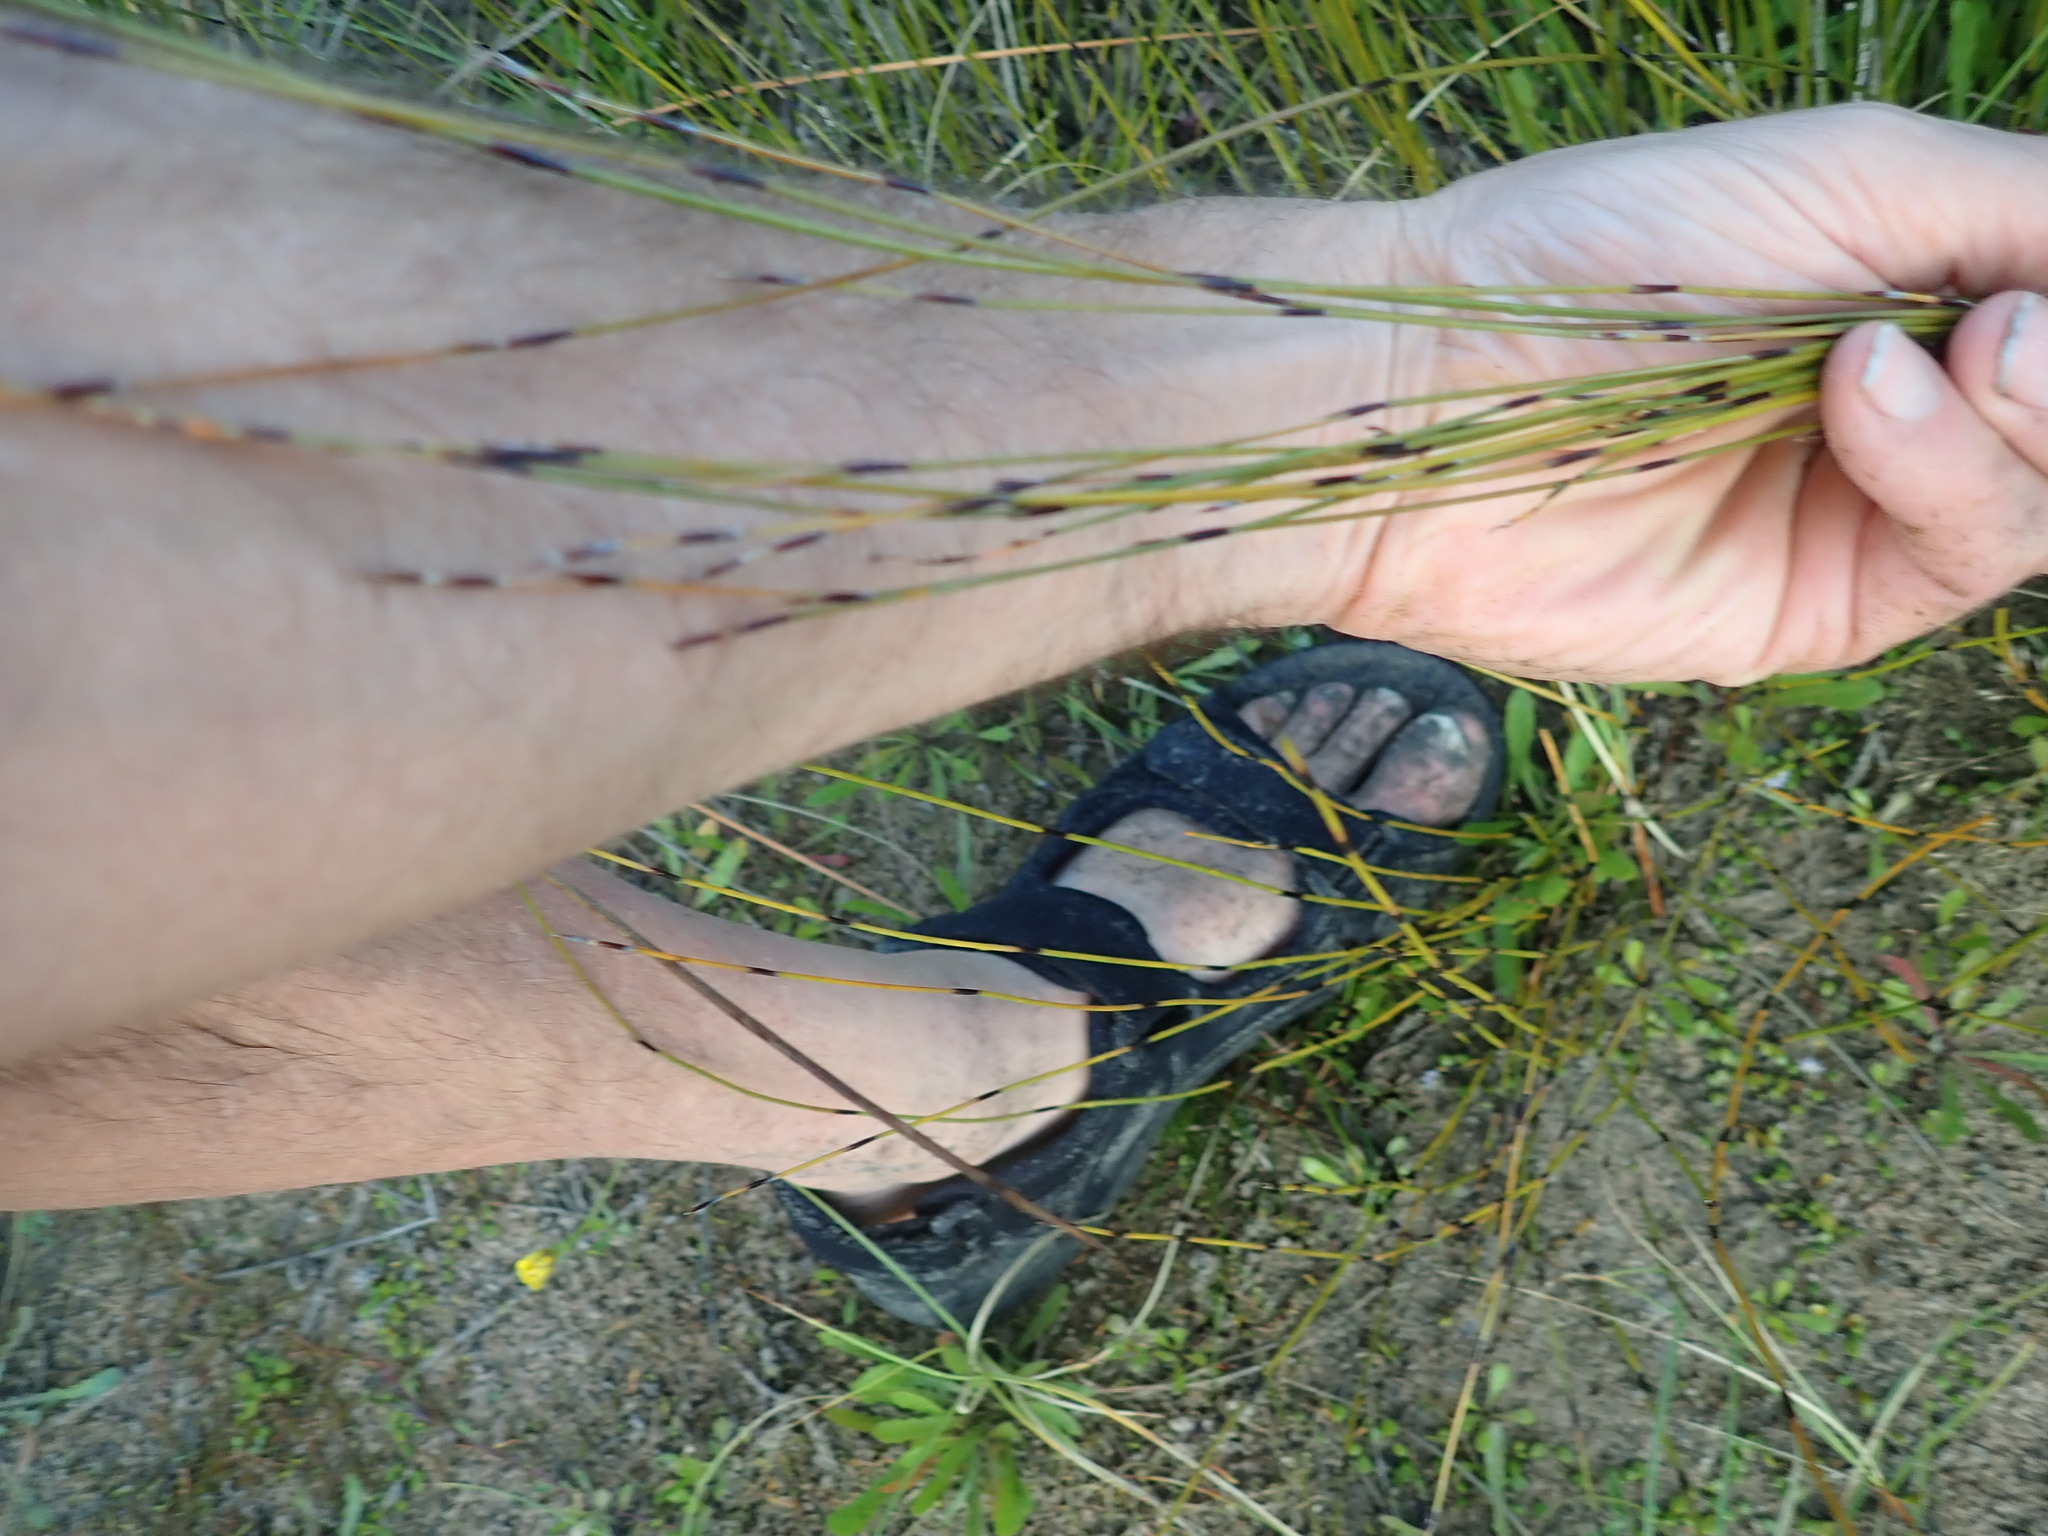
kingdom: Plantae
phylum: Tracheophyta
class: Liliopsida
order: Poales
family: Restionaceae
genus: Apodasmia
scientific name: Apodasmia similis
